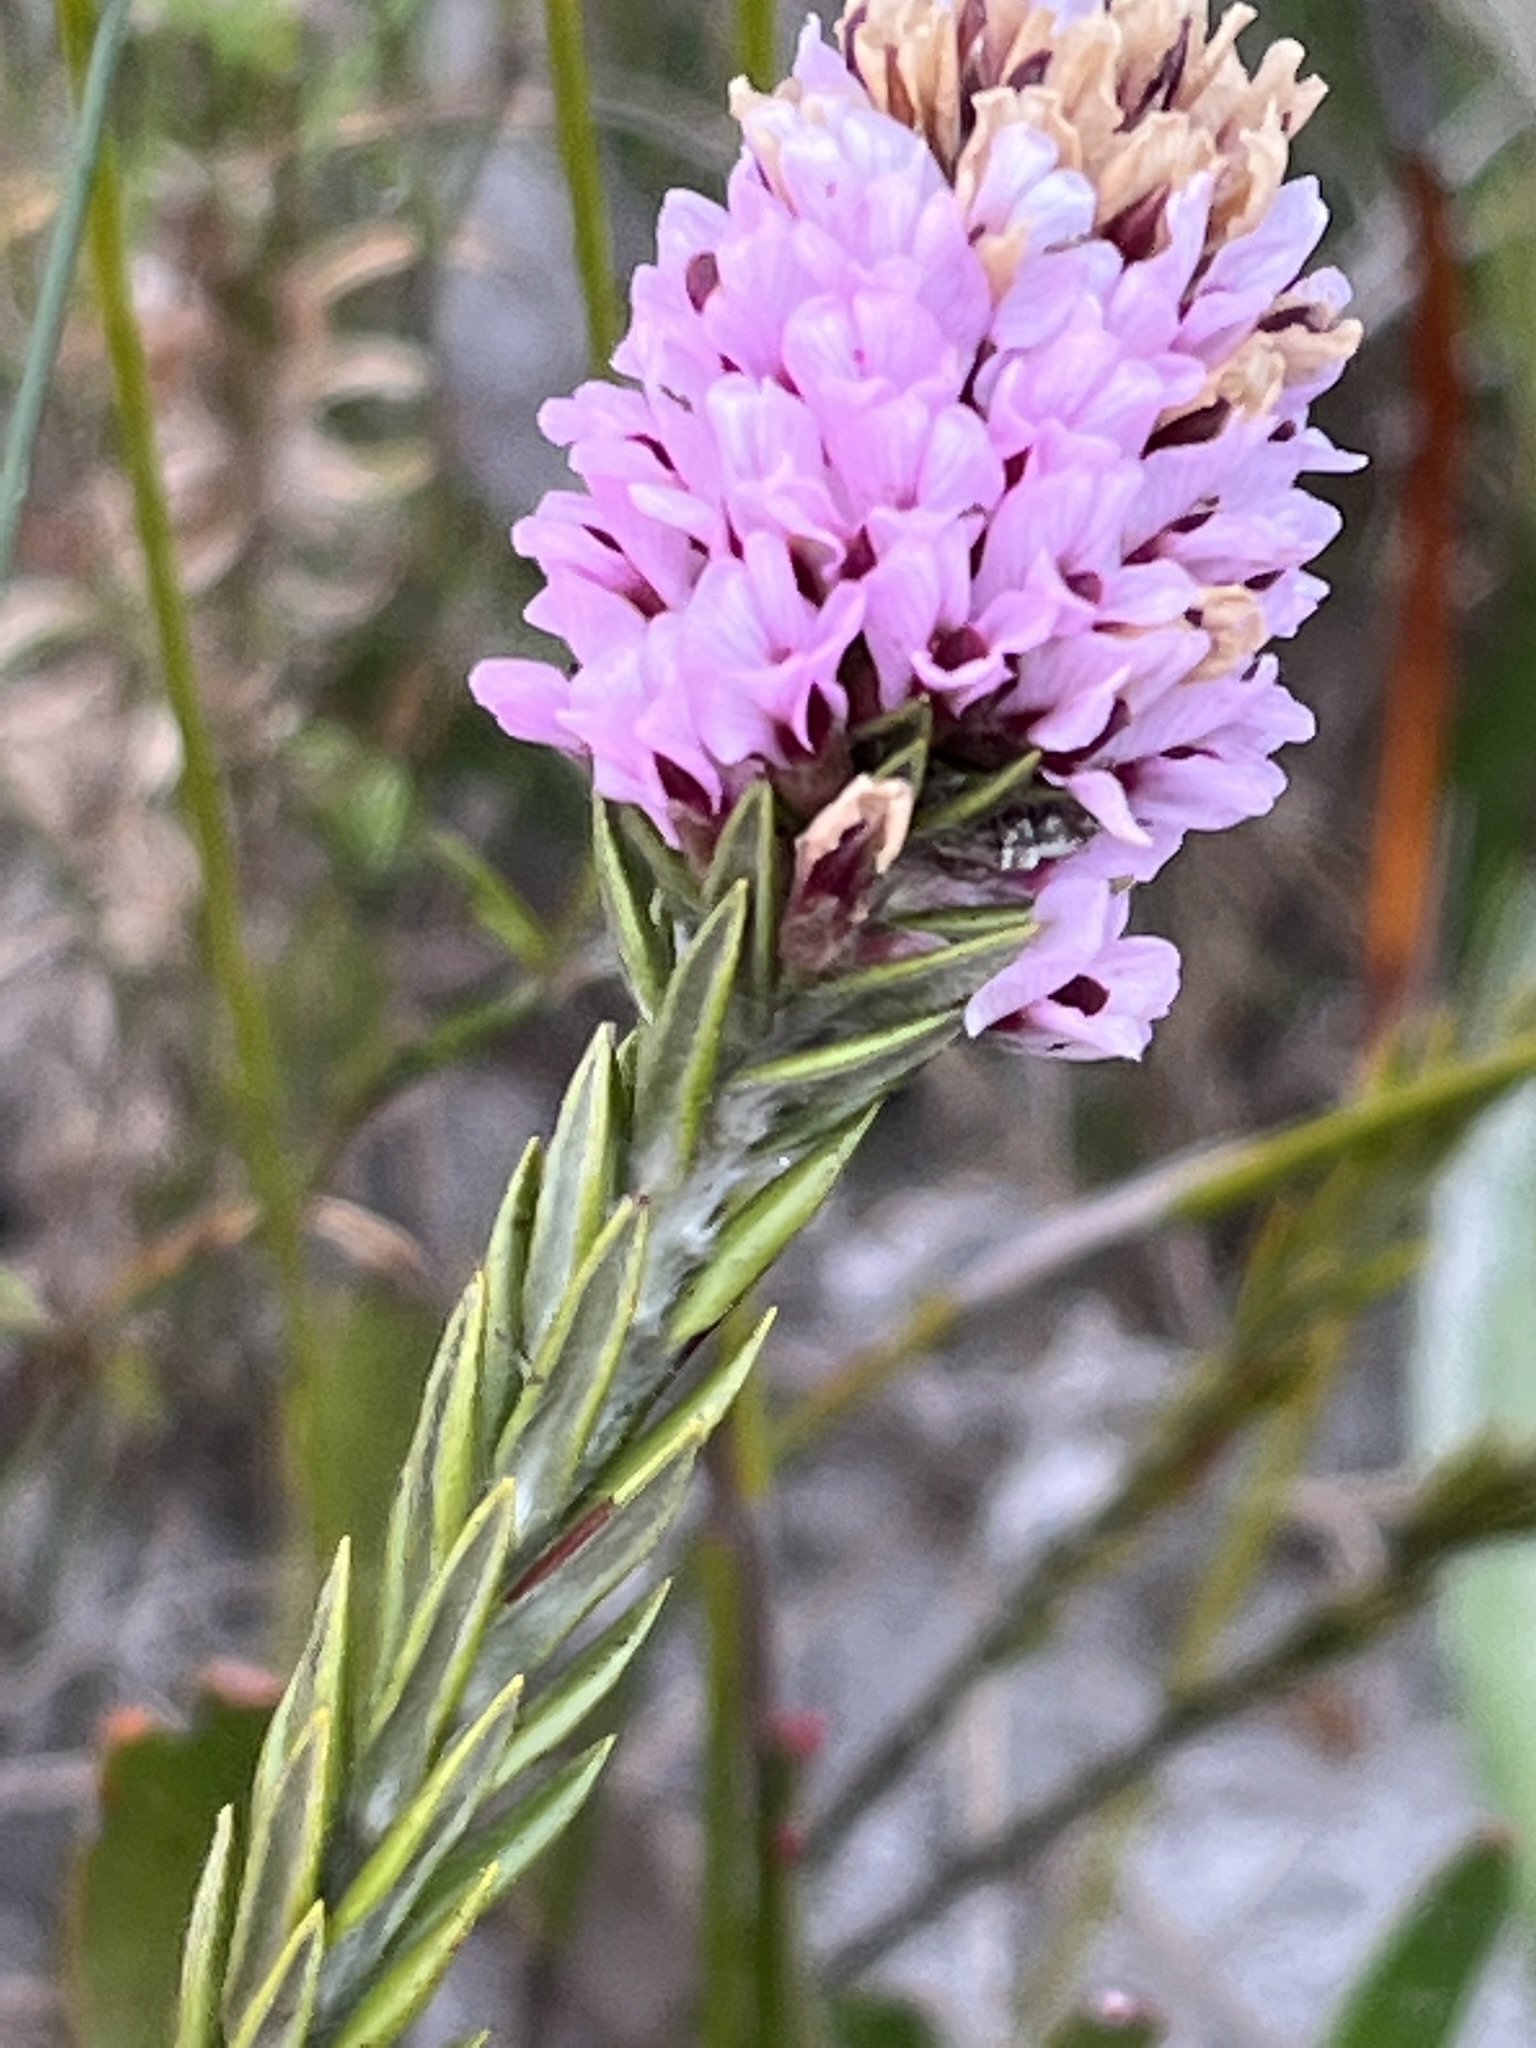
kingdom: Plantae
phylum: Tracheophyta
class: Magnoliopsida
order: Fabales
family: Fabaceae
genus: Amphithalea
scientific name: Amphithalea virgata
